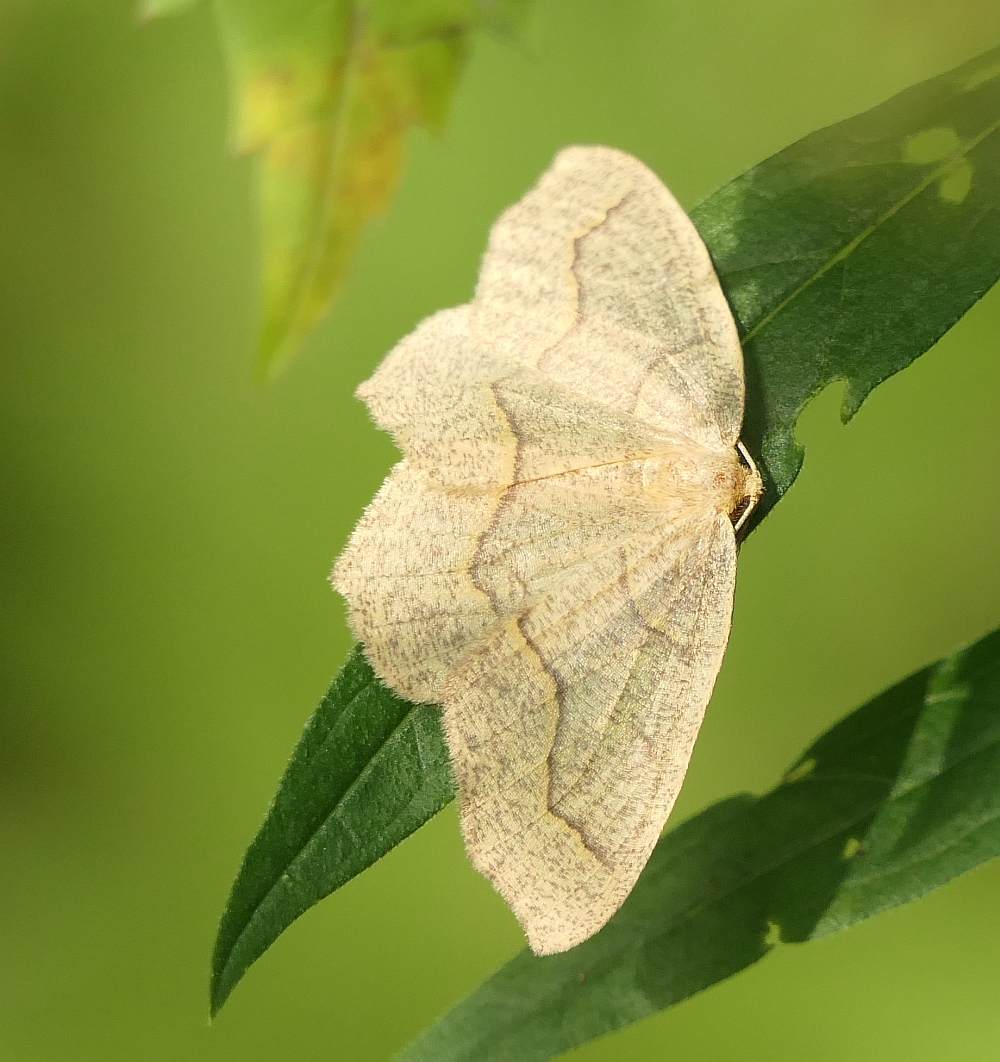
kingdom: Animalia
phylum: Arthropoda
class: Insecta
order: Lepidoptera
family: Geometridae
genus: Lambdina
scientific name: Lambdina fiscellaria
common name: Hemlock looper
